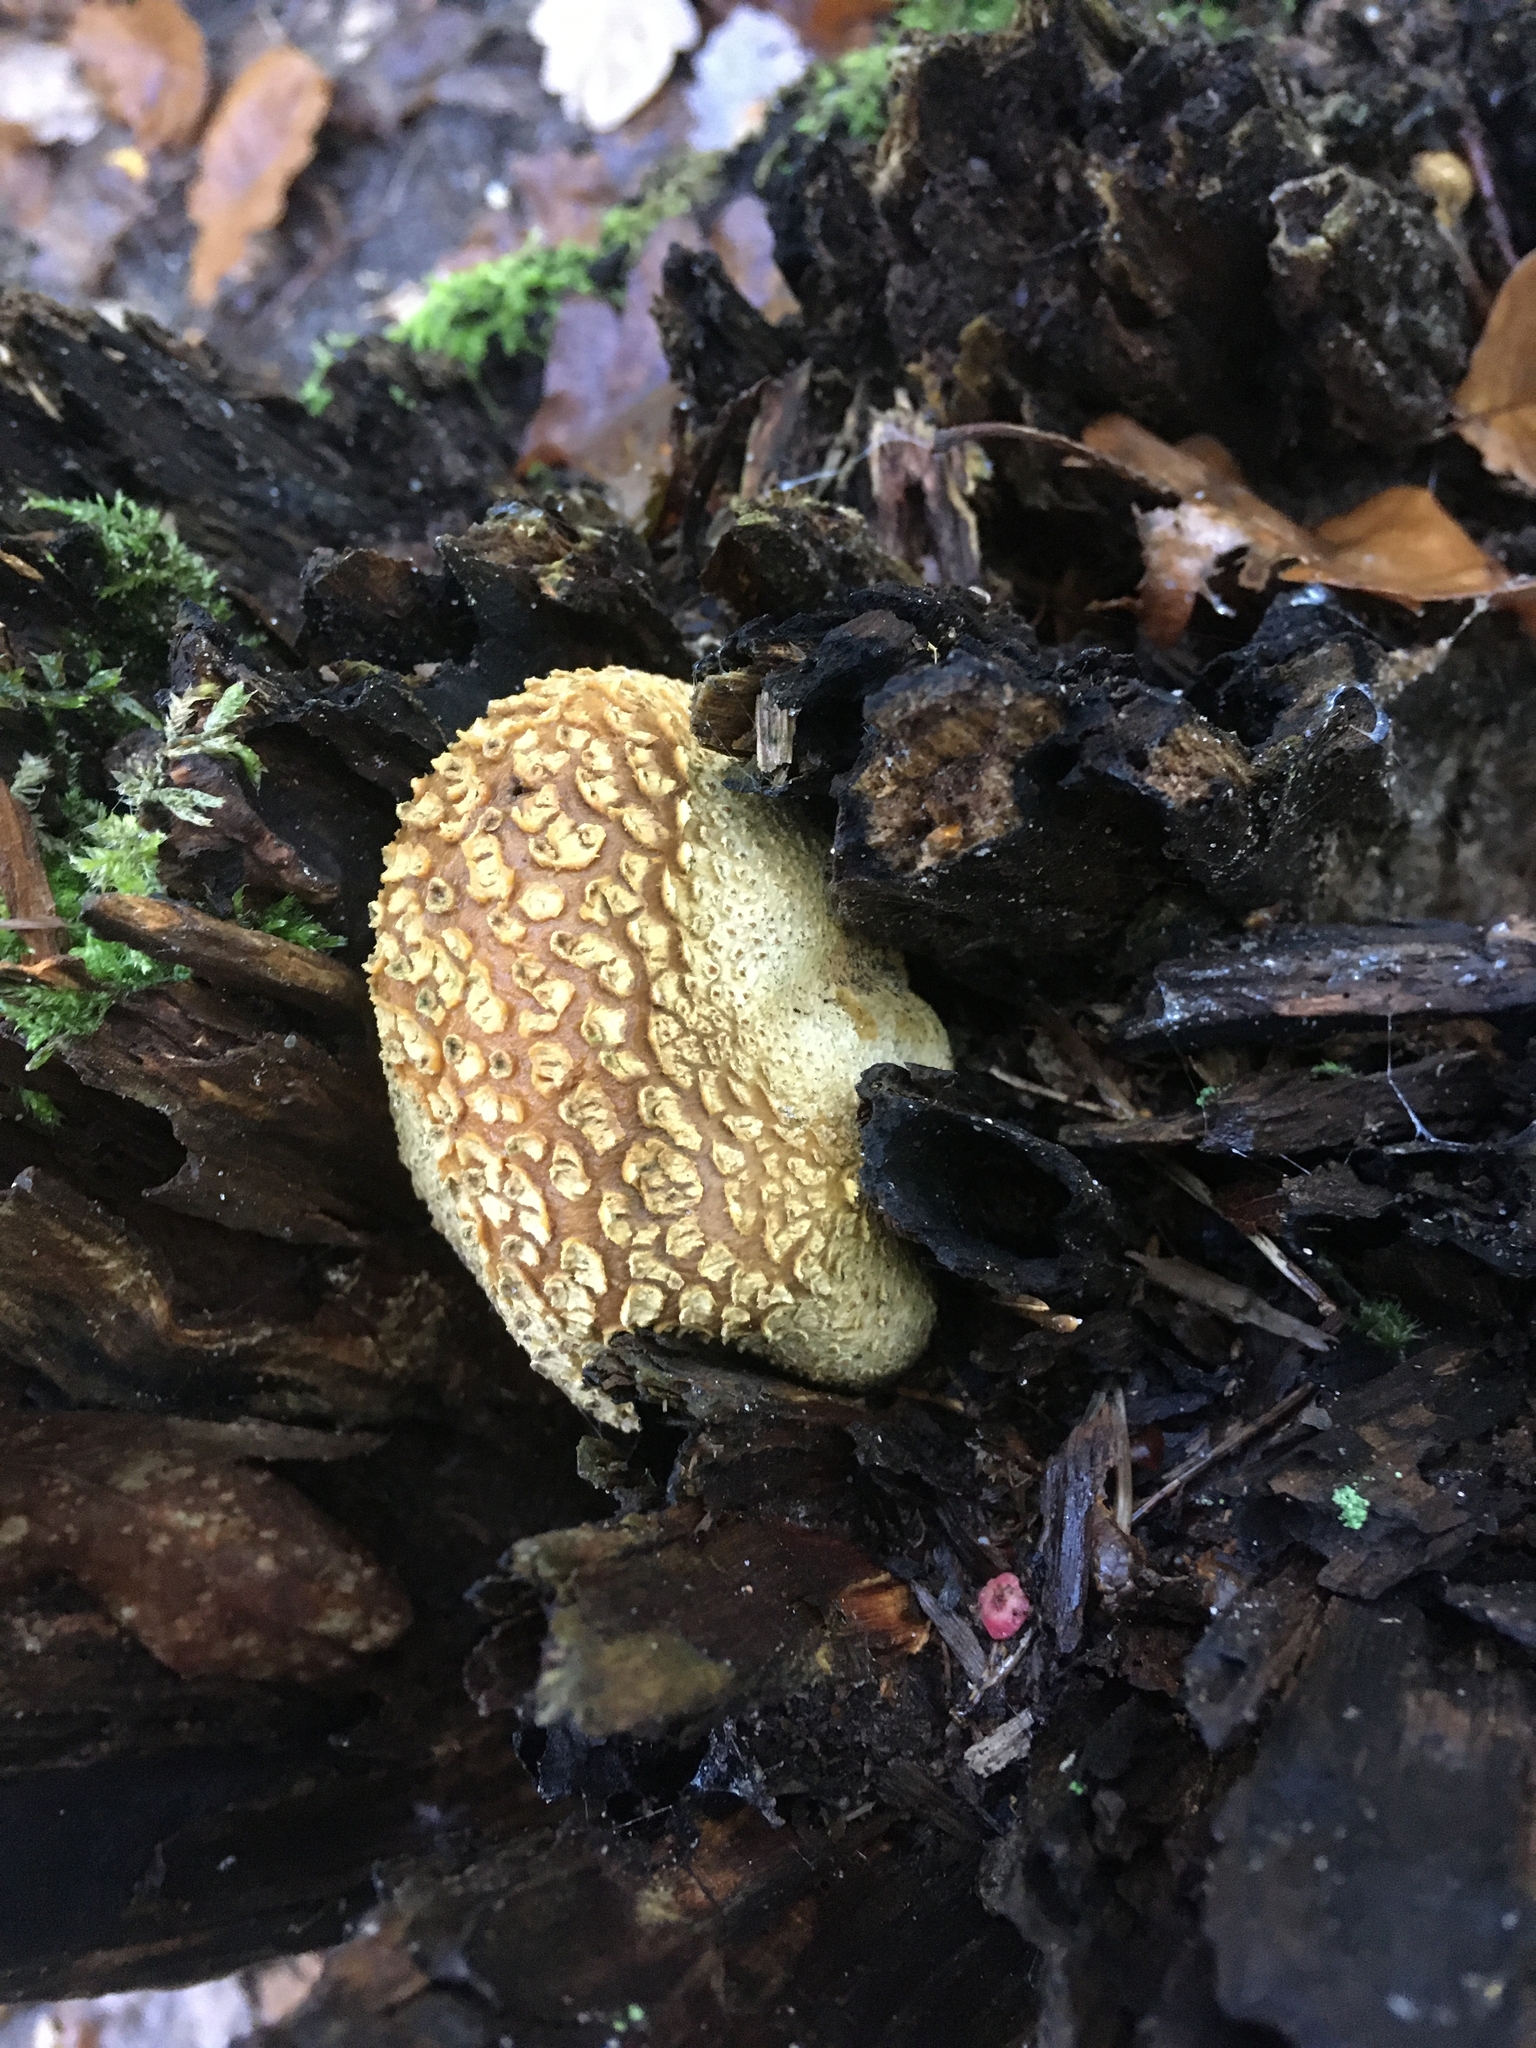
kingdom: Fungi
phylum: Basidiomycota
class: Agaricomycetes
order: Boletales
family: Sclerodermataceae
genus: Scleroderma
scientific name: Scleroderma citrinum
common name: Common earthball
